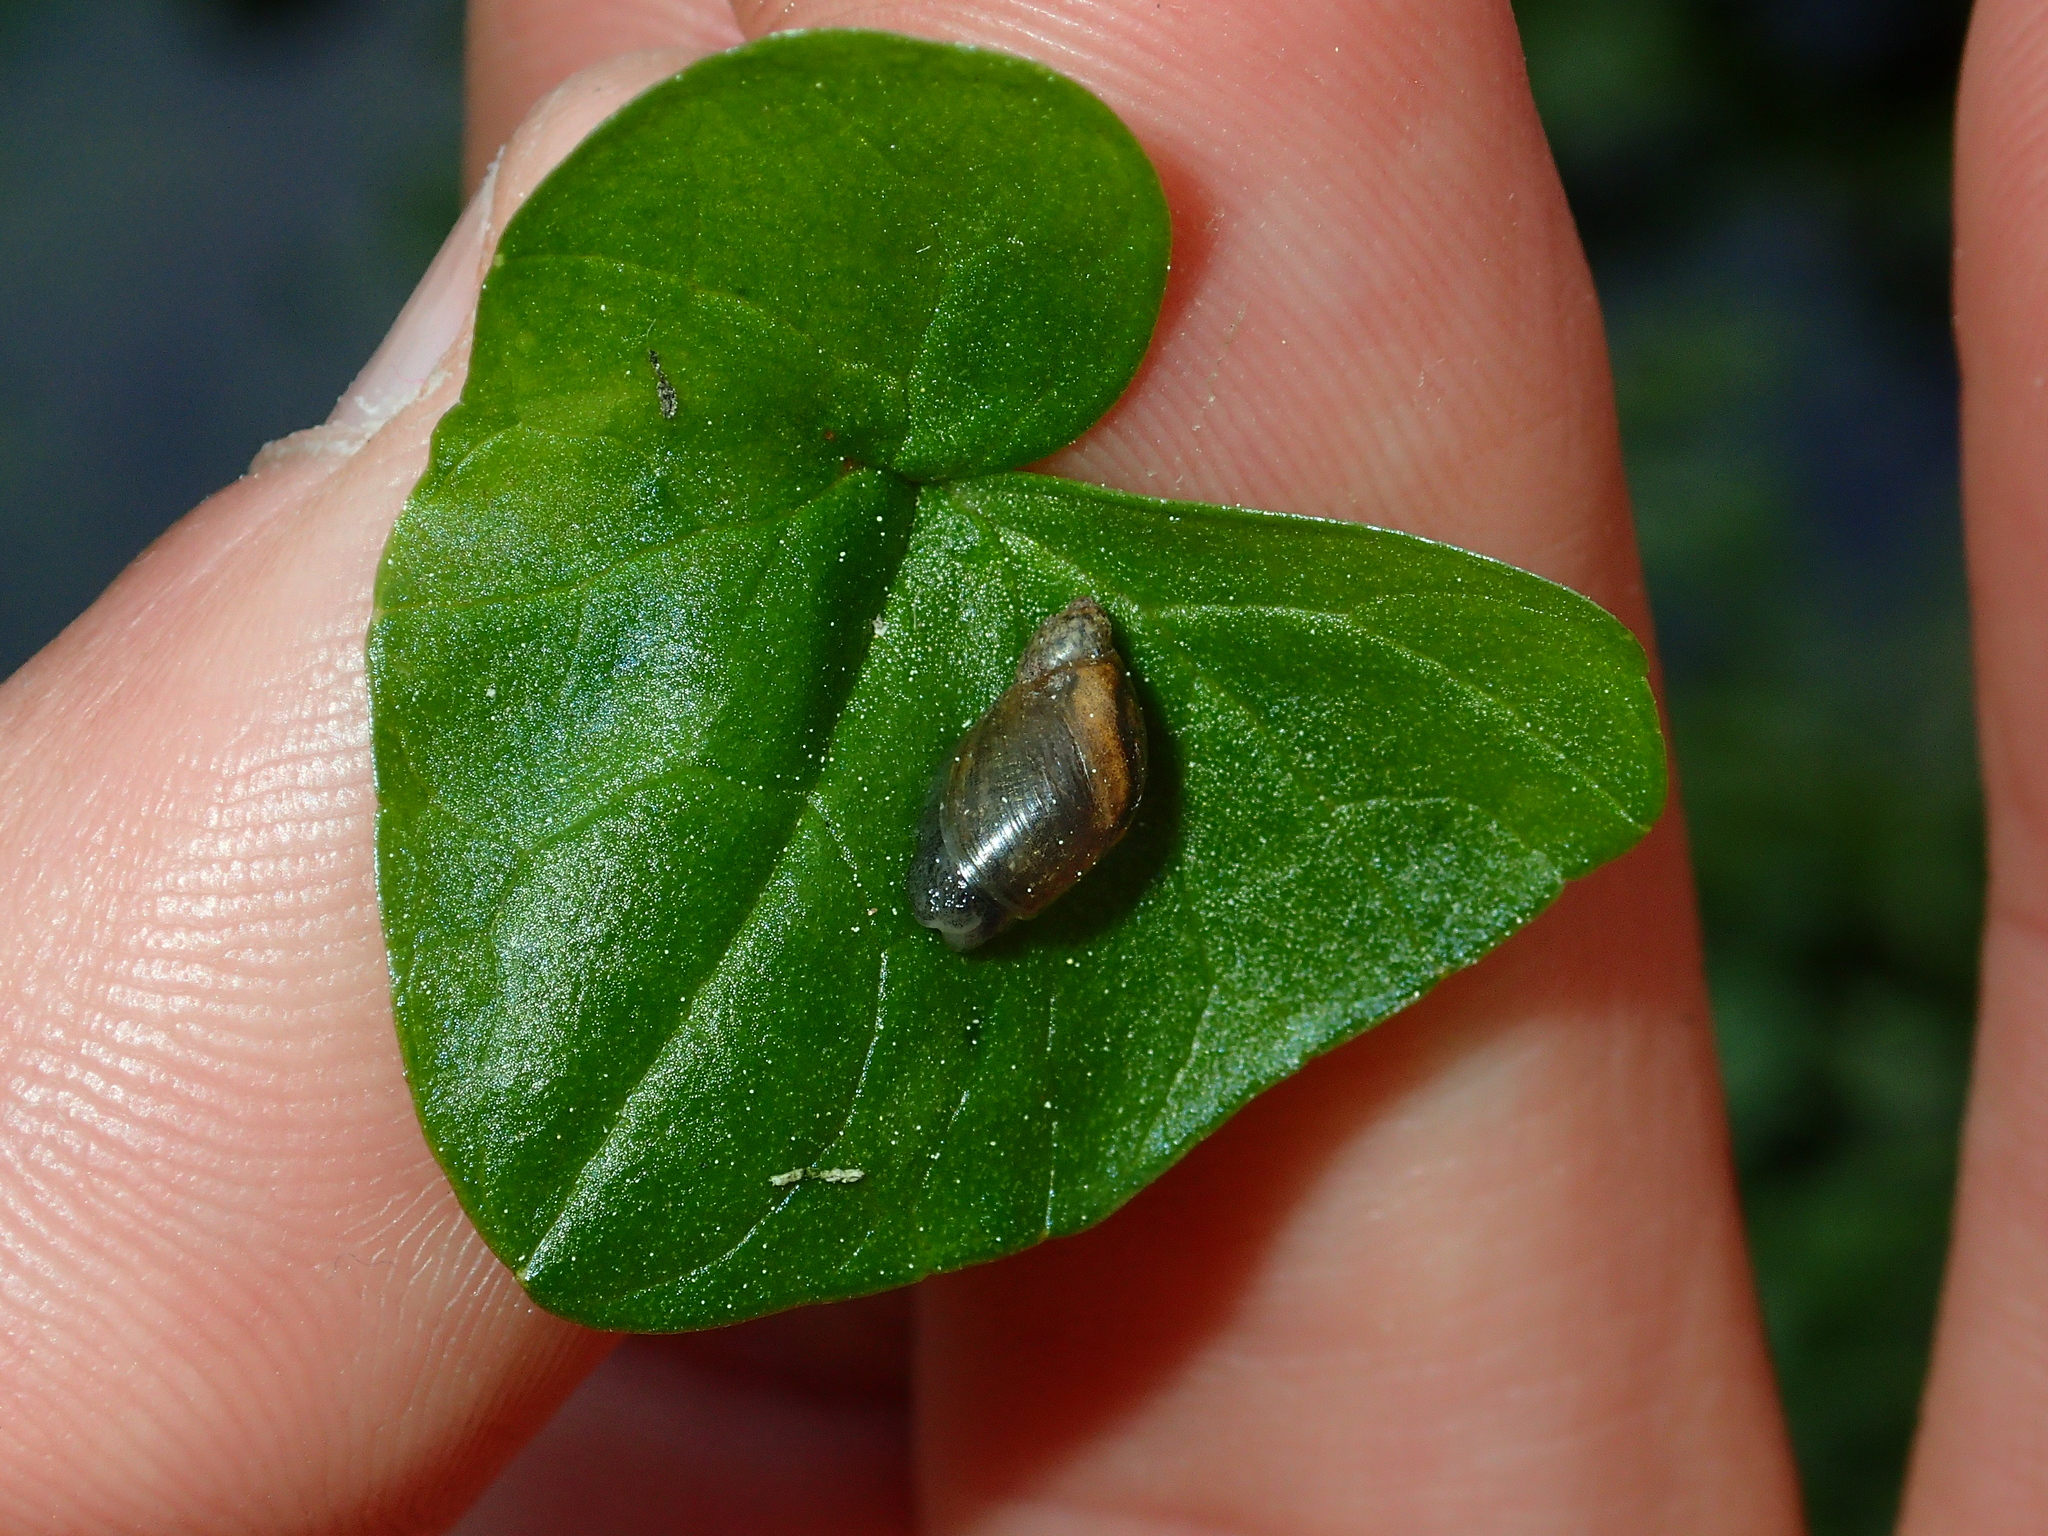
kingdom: Animalia
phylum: Mollusca
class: Gastropoda
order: Stylommatophora
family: Succineidae
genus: Succinea
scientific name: Succinea putris
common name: European ambersnail
